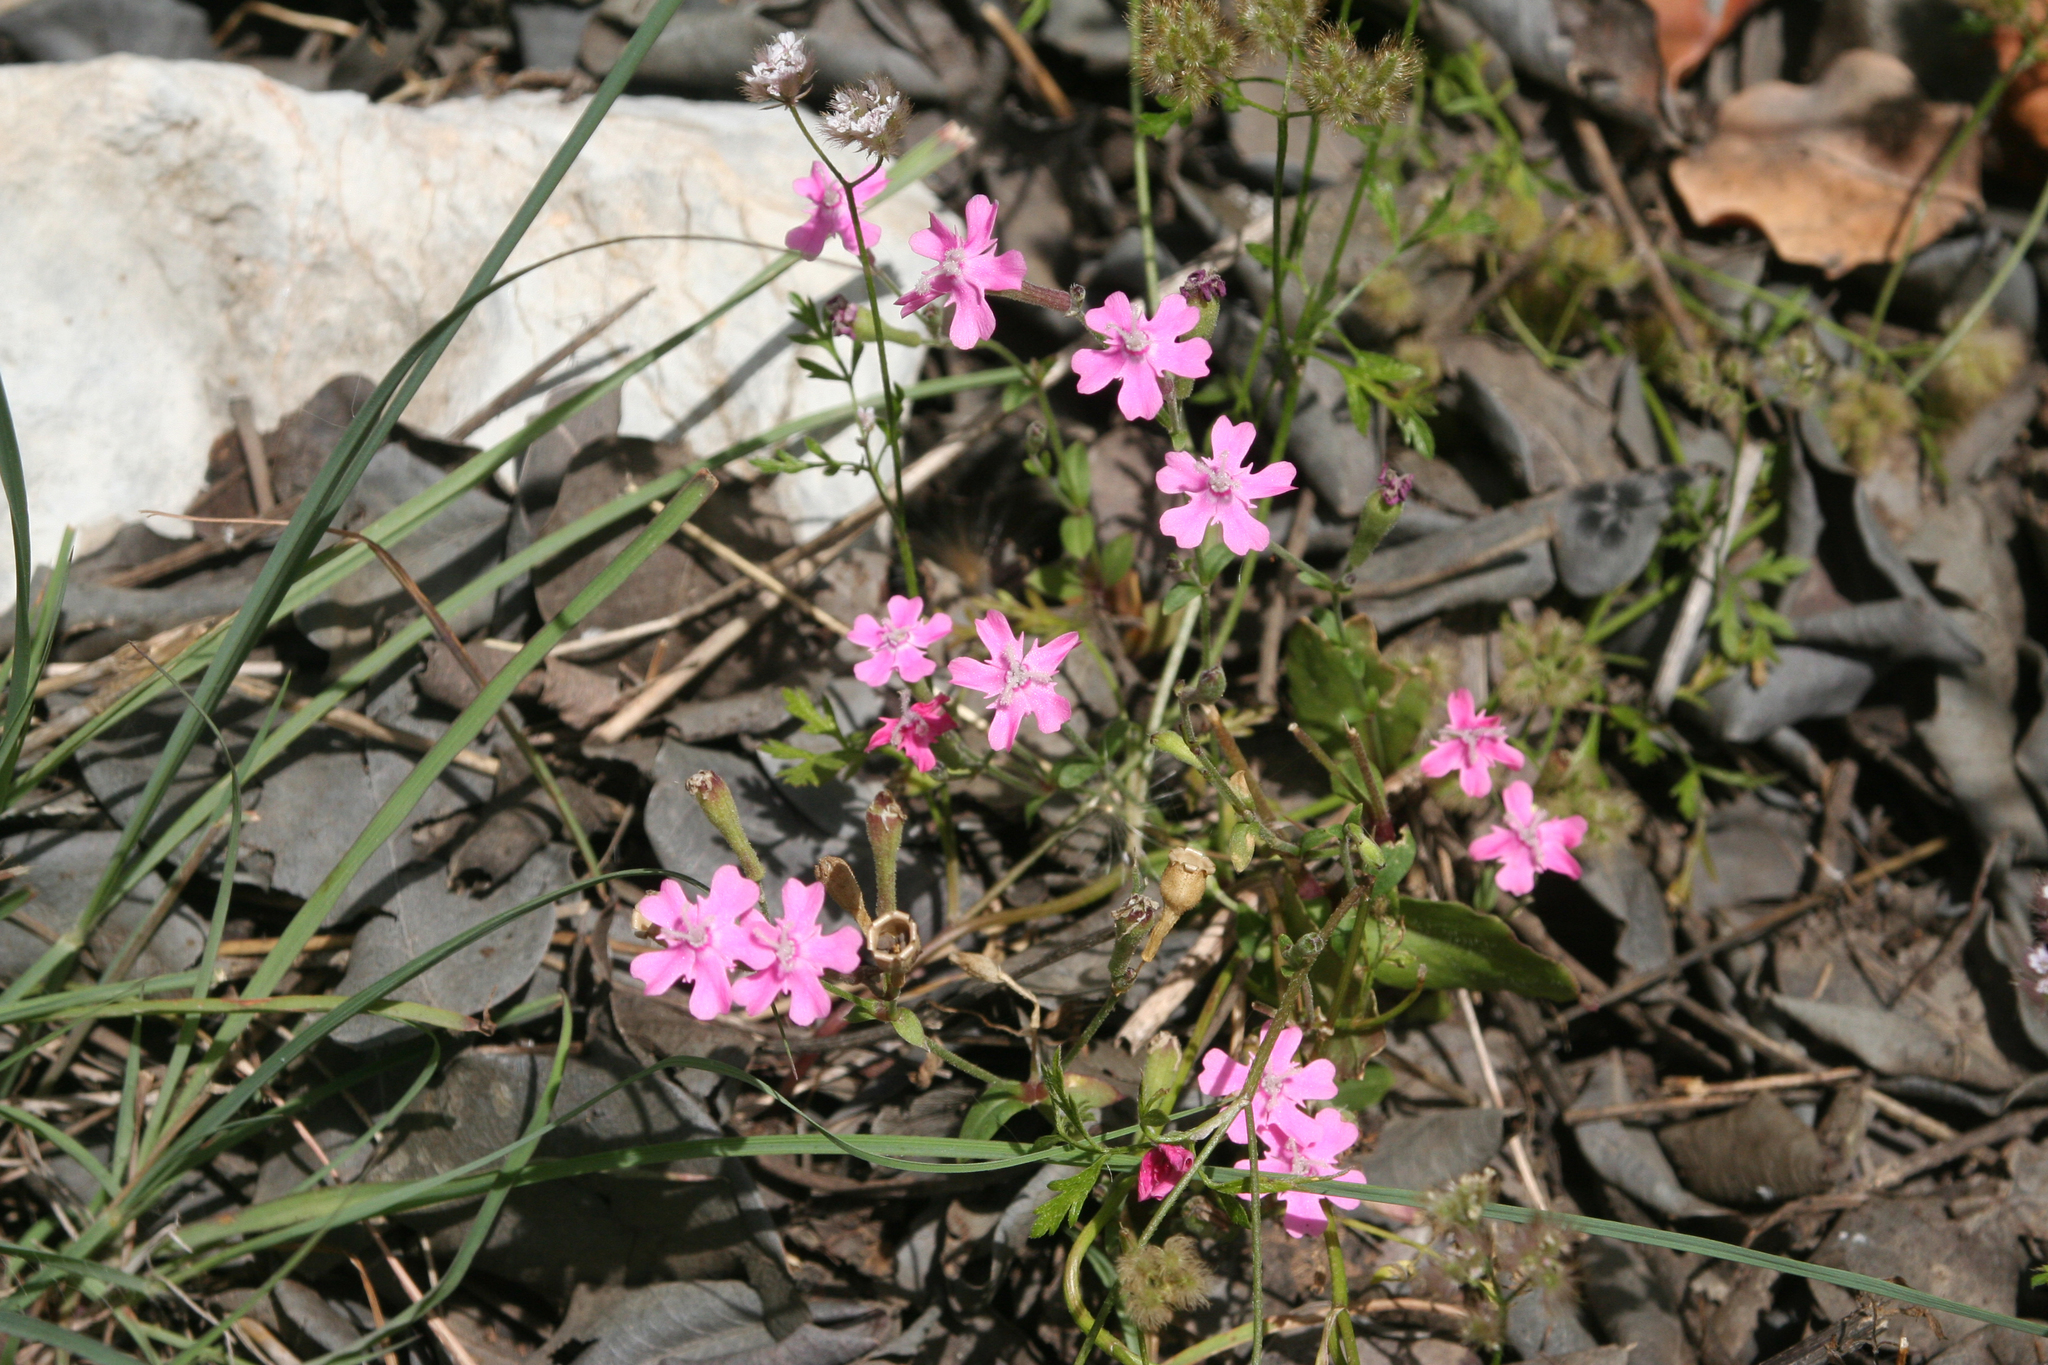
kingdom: Plantae
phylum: Tracheophyta
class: Magnoliopsida
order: Caryophyllales
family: Caryophyllaceae
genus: Silene
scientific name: Silene aegyptiaca
